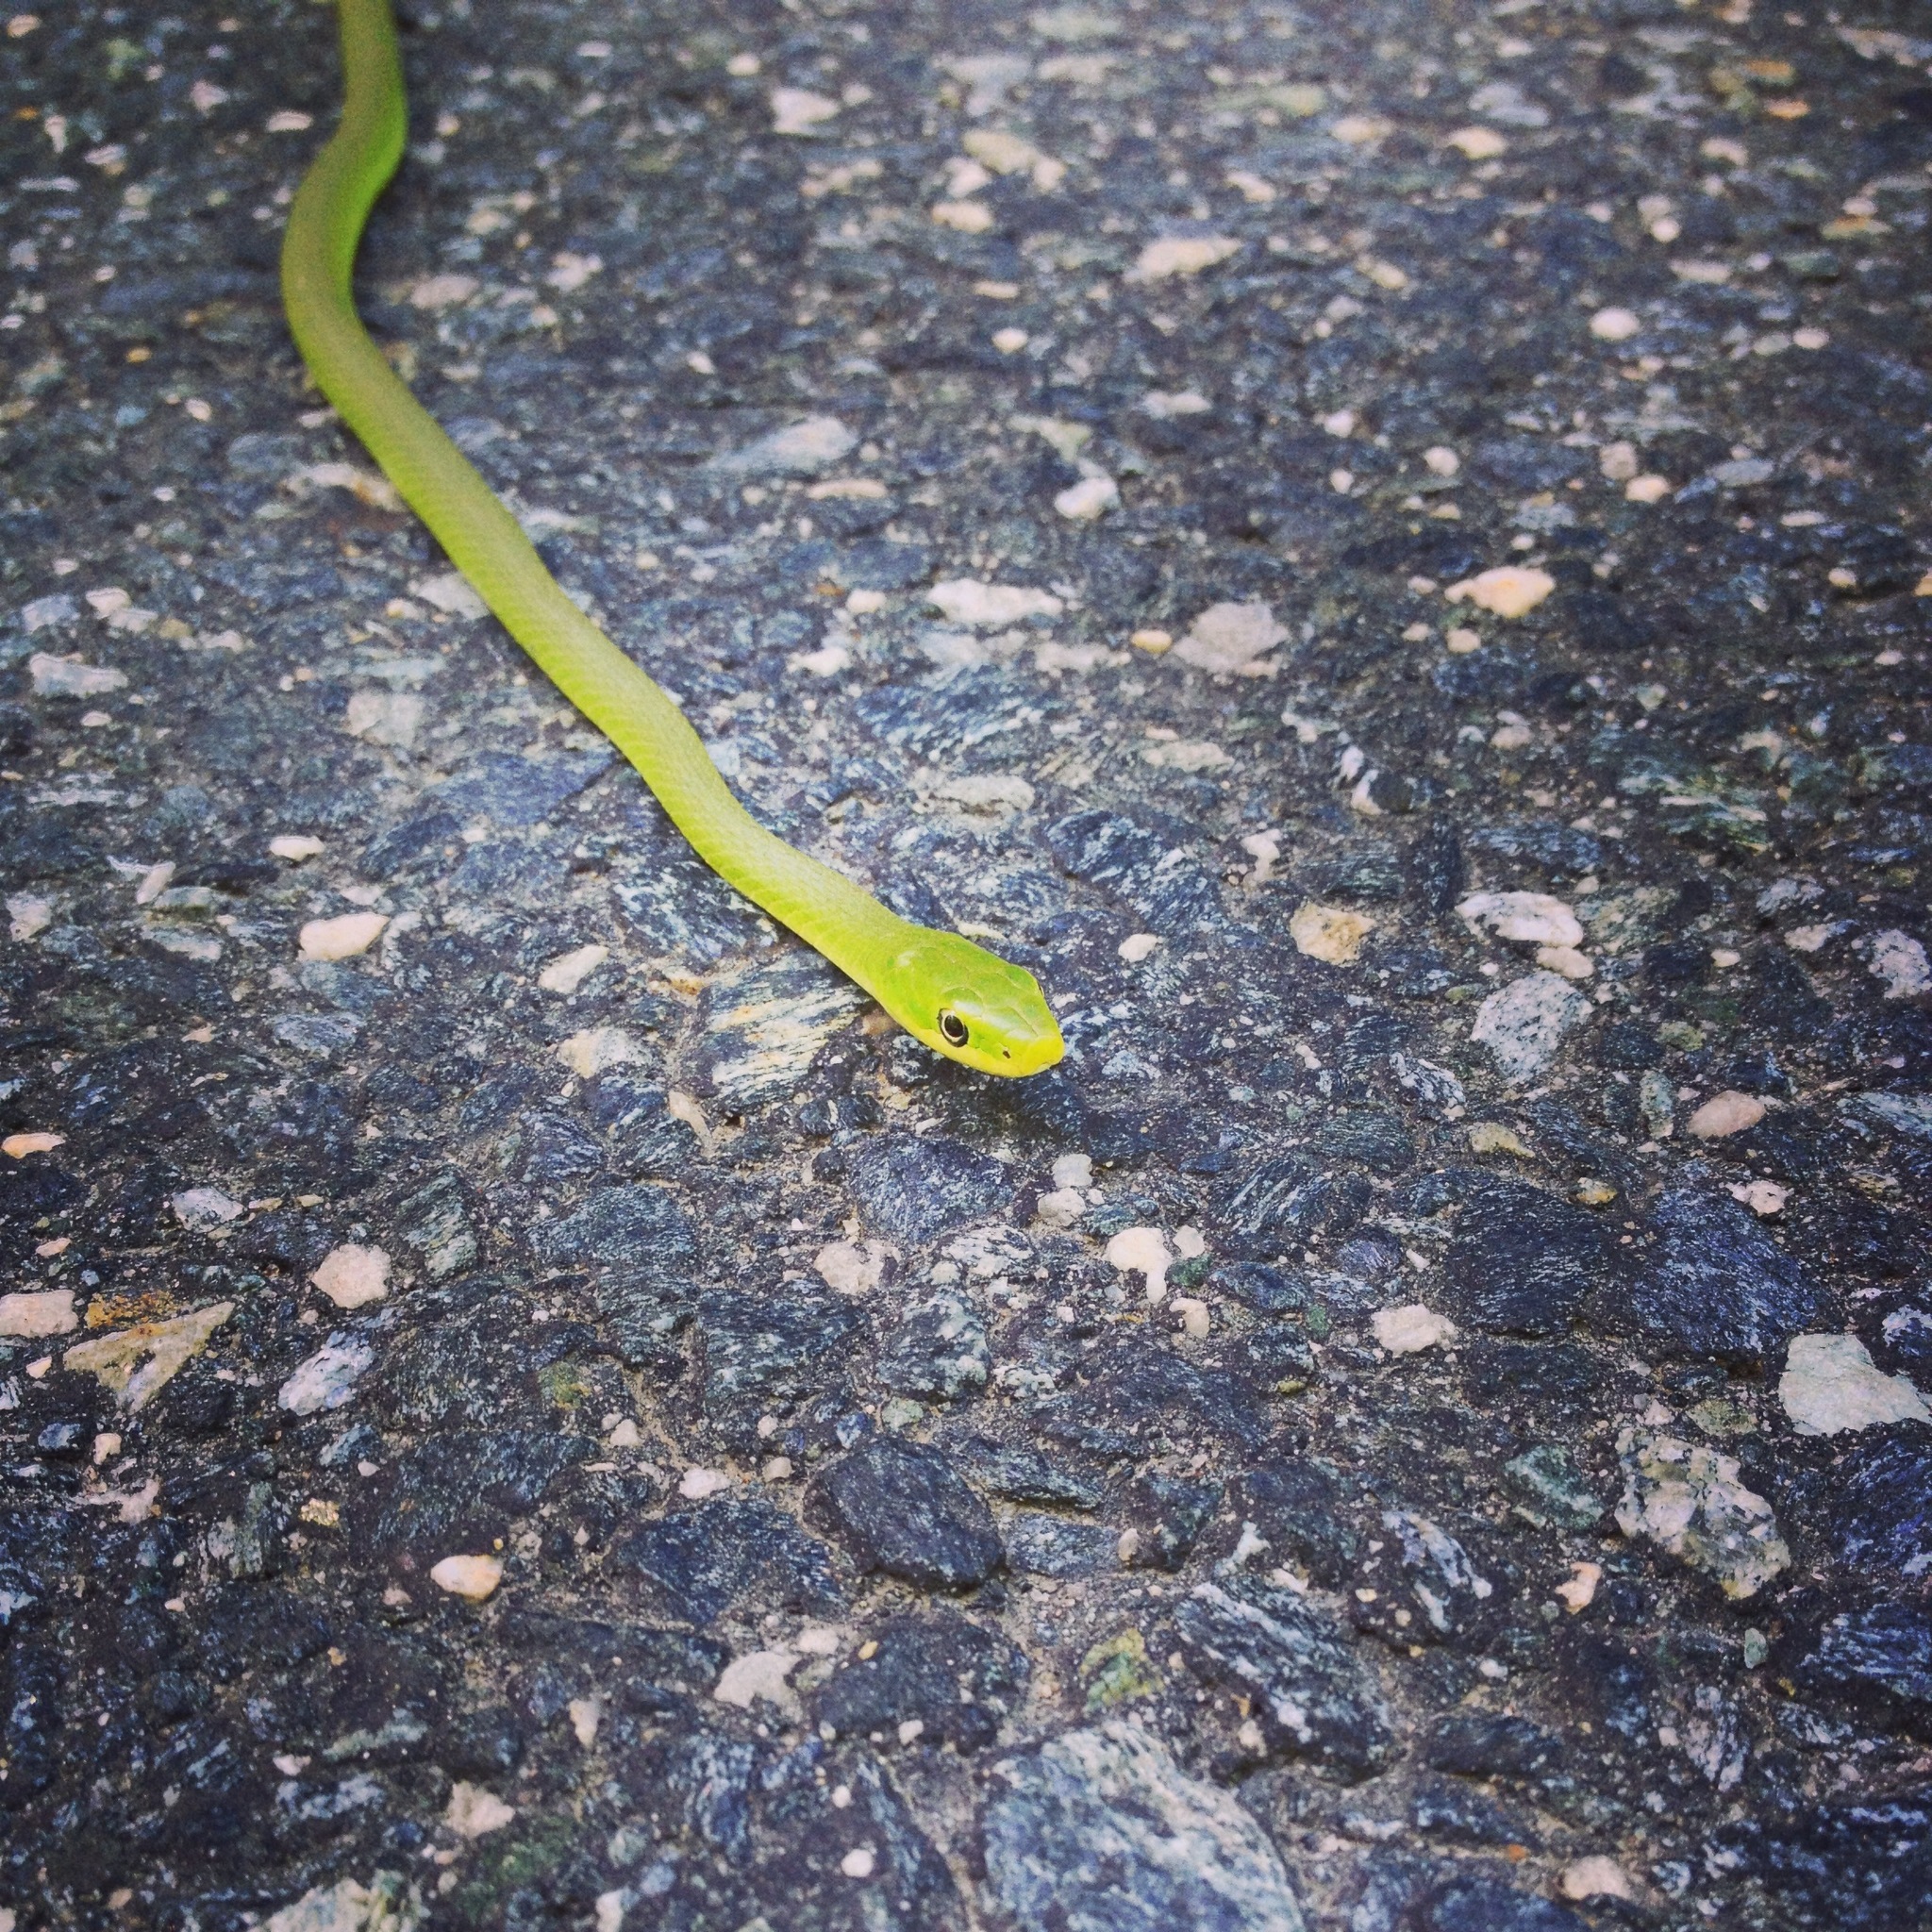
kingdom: Animalia
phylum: Chordata
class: Squamata
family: Colubridae
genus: Opheodrys
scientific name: Opheodrys aestivus
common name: Rough greensnake
